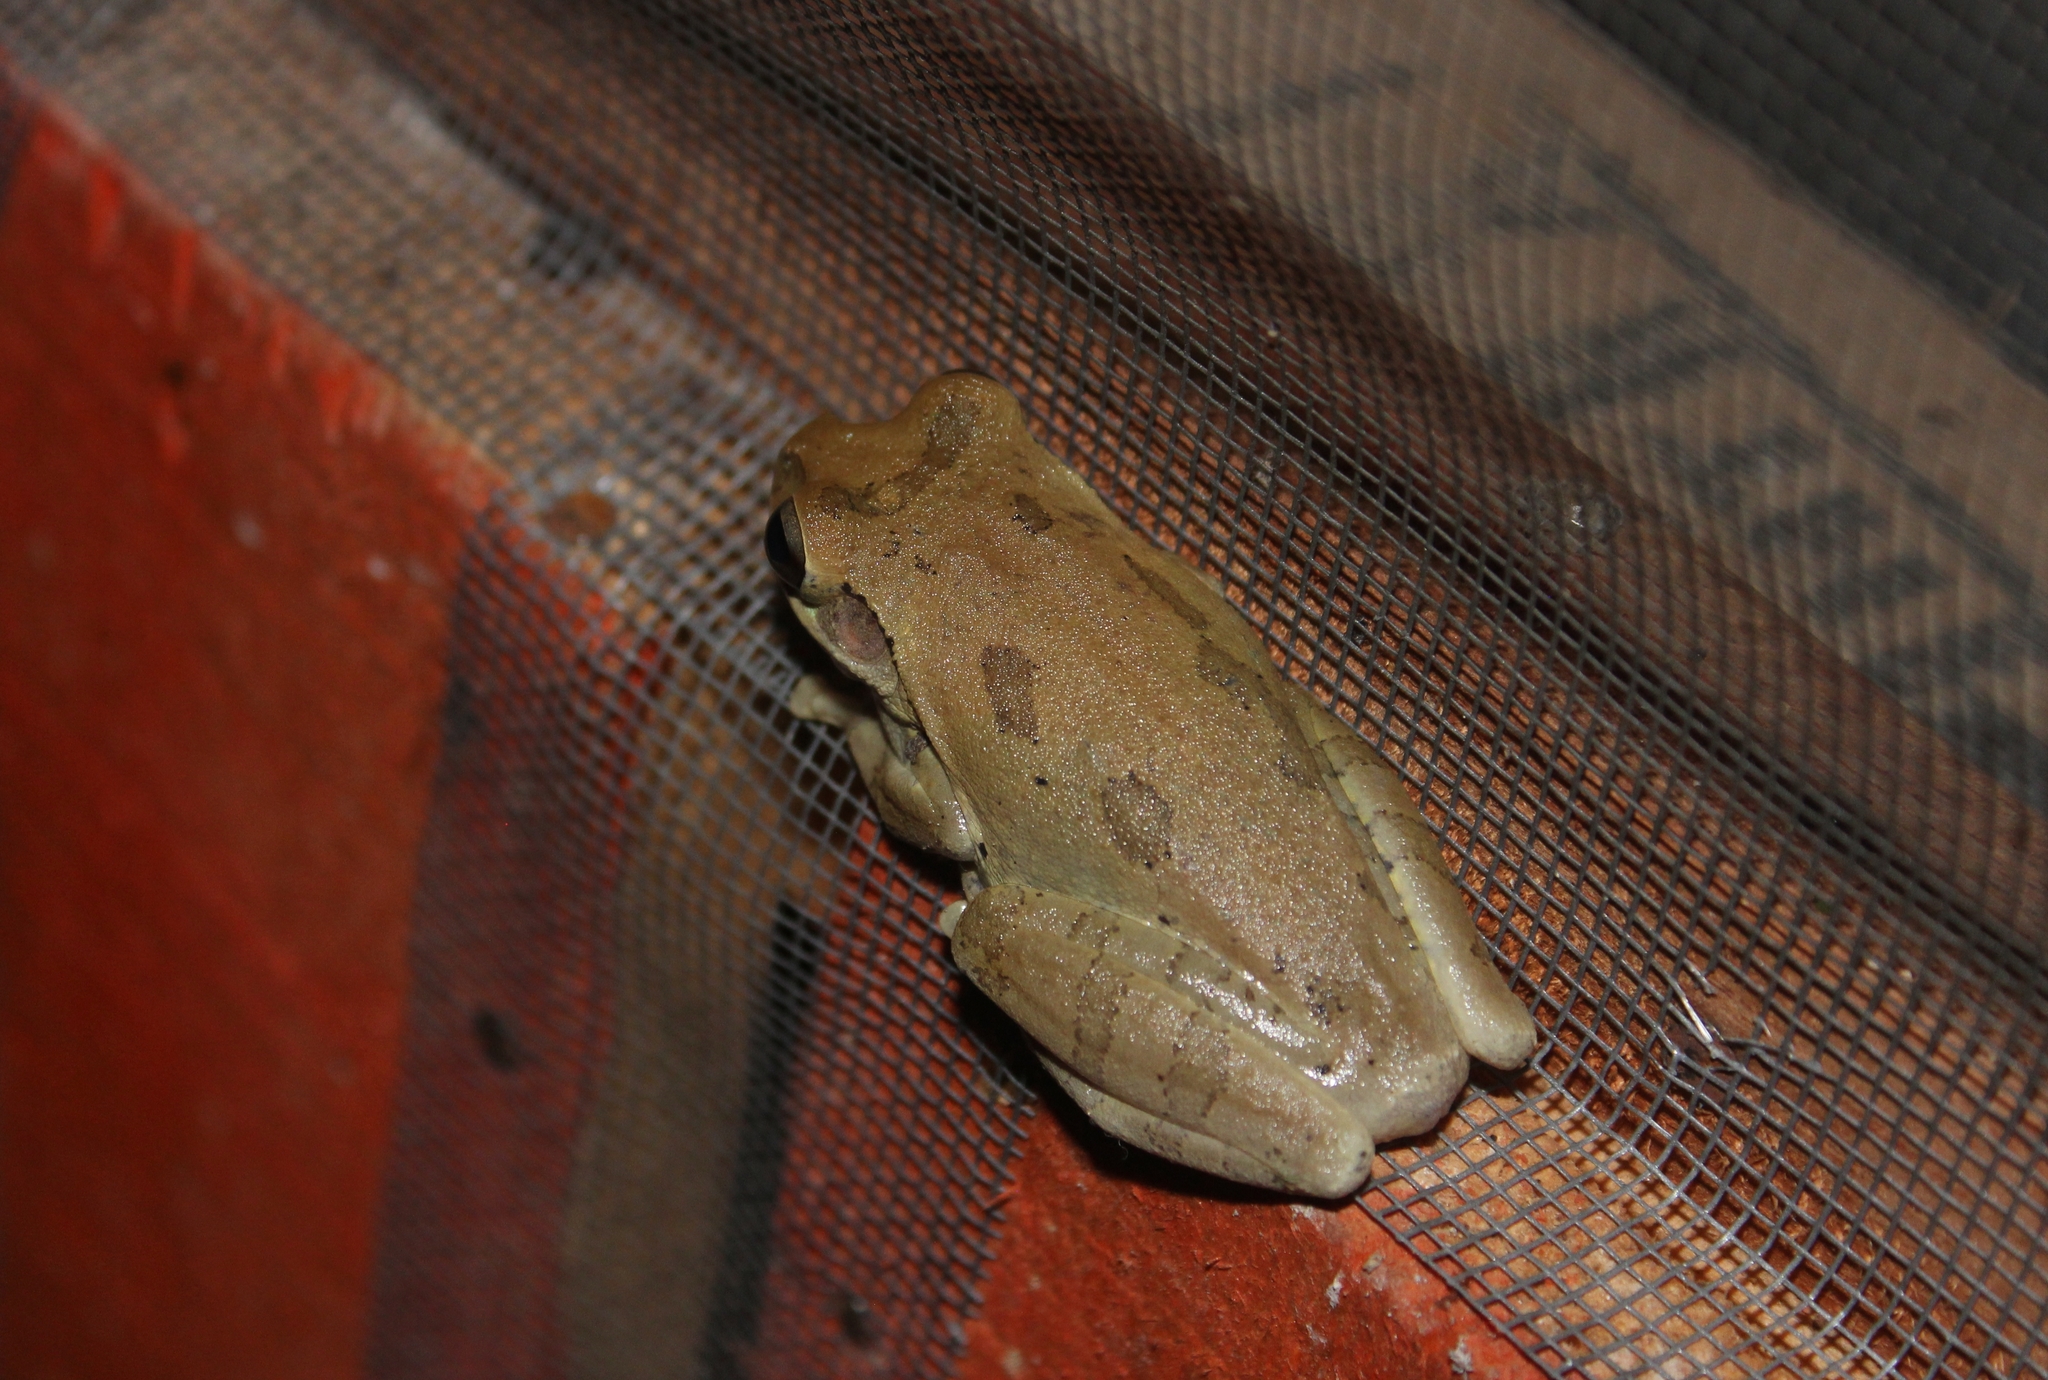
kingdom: Animalia
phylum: Chordata
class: Amphibia
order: Anura
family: Hylidae
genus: Smilisca
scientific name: Smilisca baudinii
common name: Mexican smilisca
